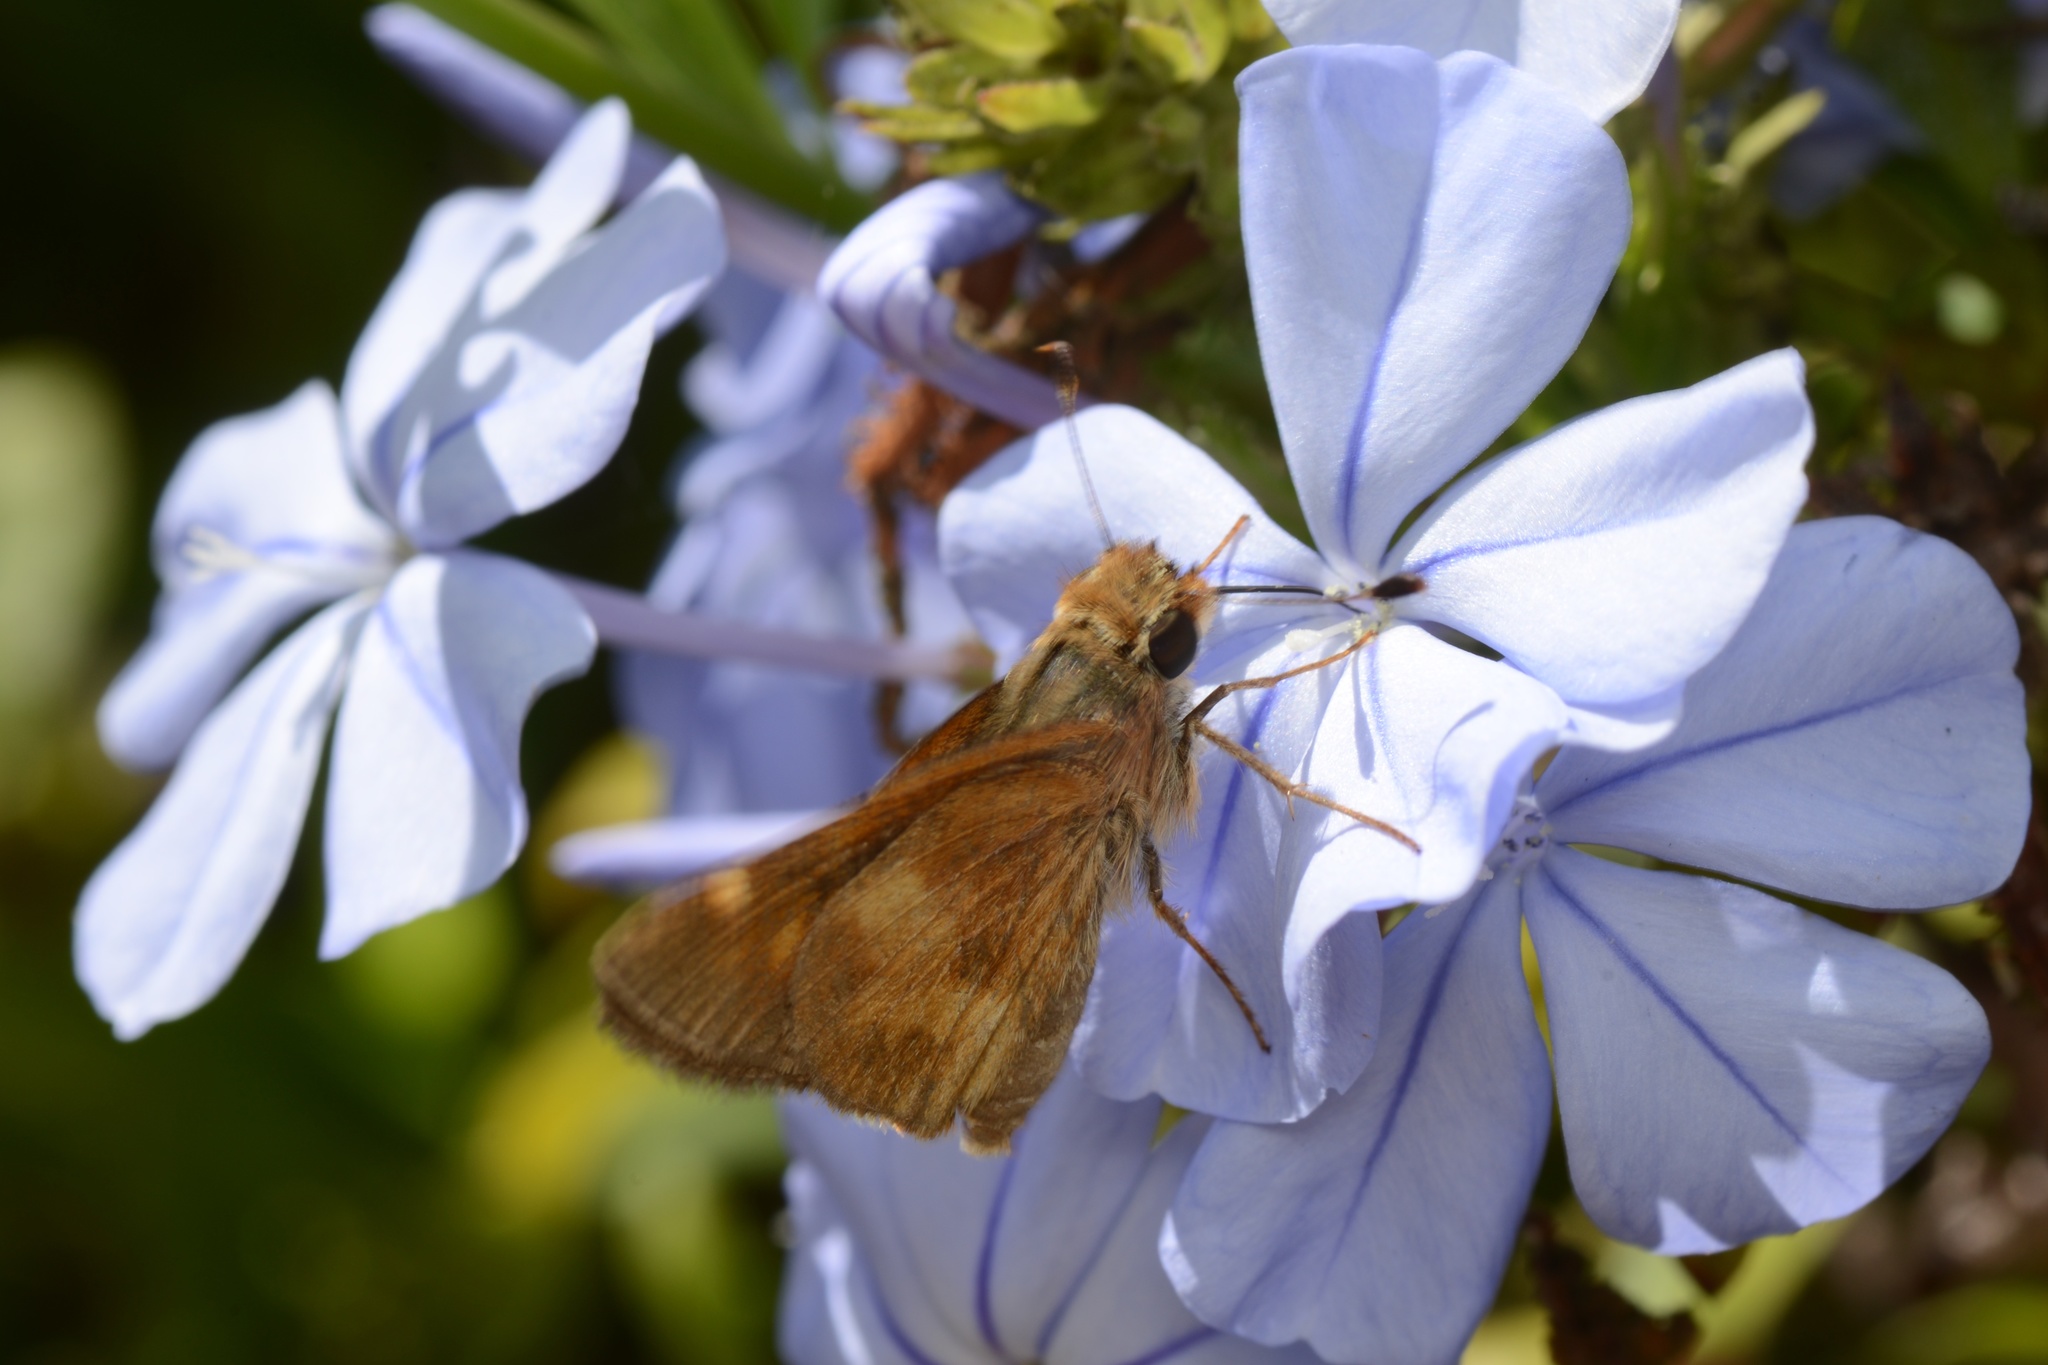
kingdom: Animalia
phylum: Arthropoda
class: Insecta
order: Lepidoptera
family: Hesperiidae
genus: Lon
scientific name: Lon melane
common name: Umber skipper
